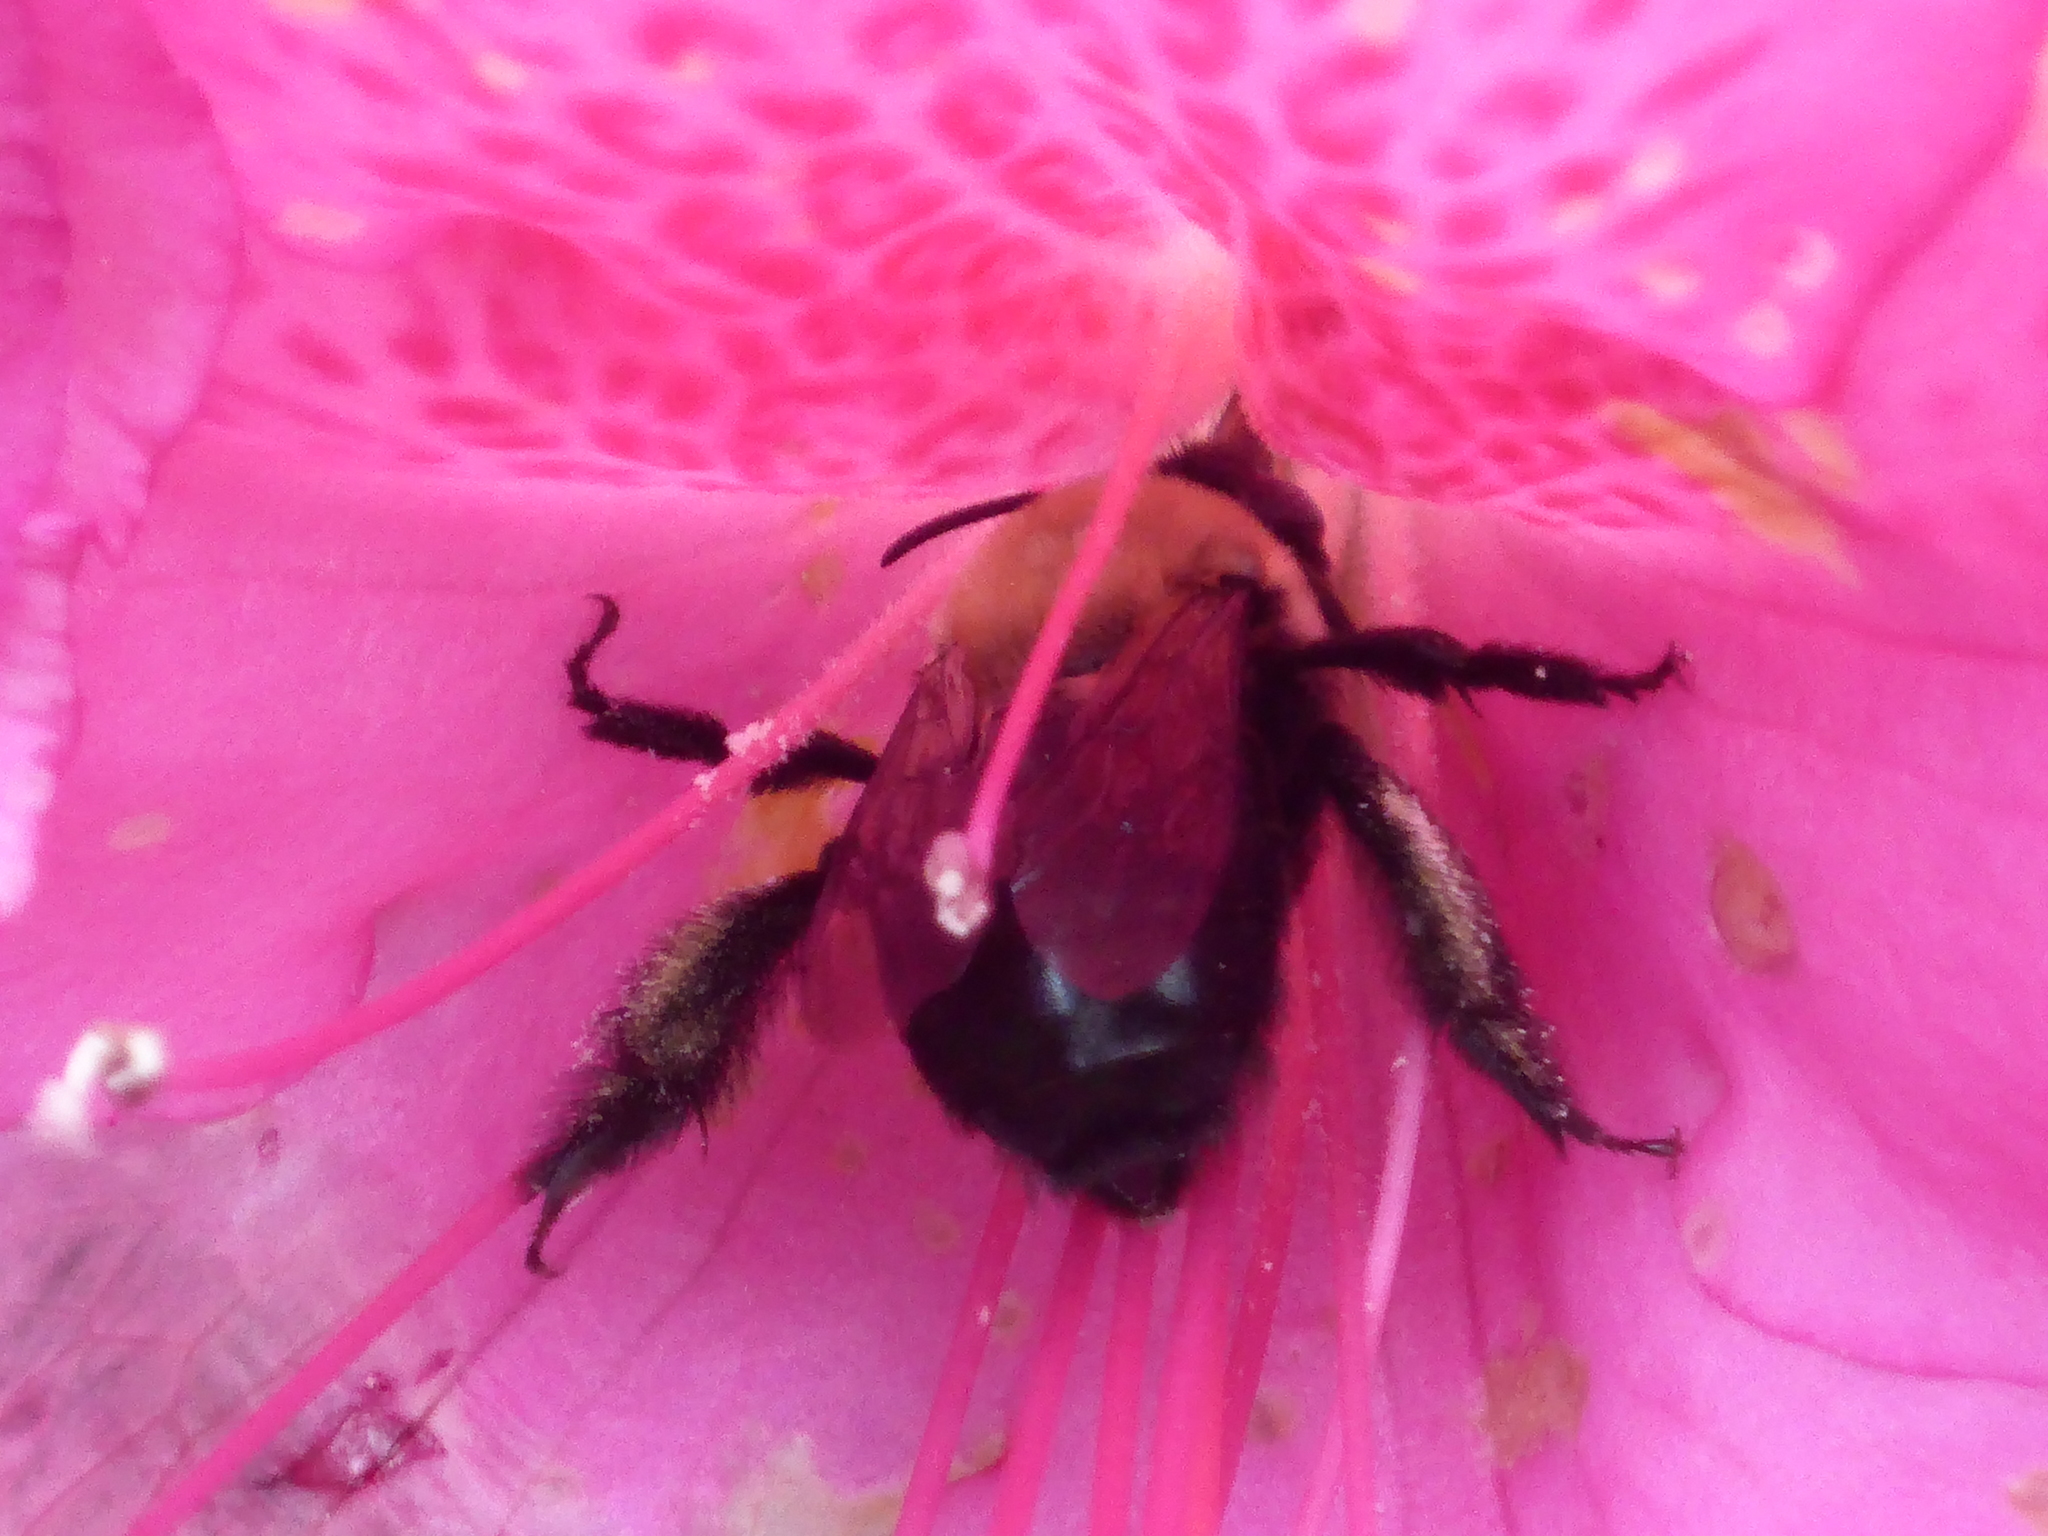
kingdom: Animalia
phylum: Arthropoda
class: Insecta
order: Hymenoptera
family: Apidae
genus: Habropoda
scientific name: Habropoda laboriosa
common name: Southeastern blueberry bee
